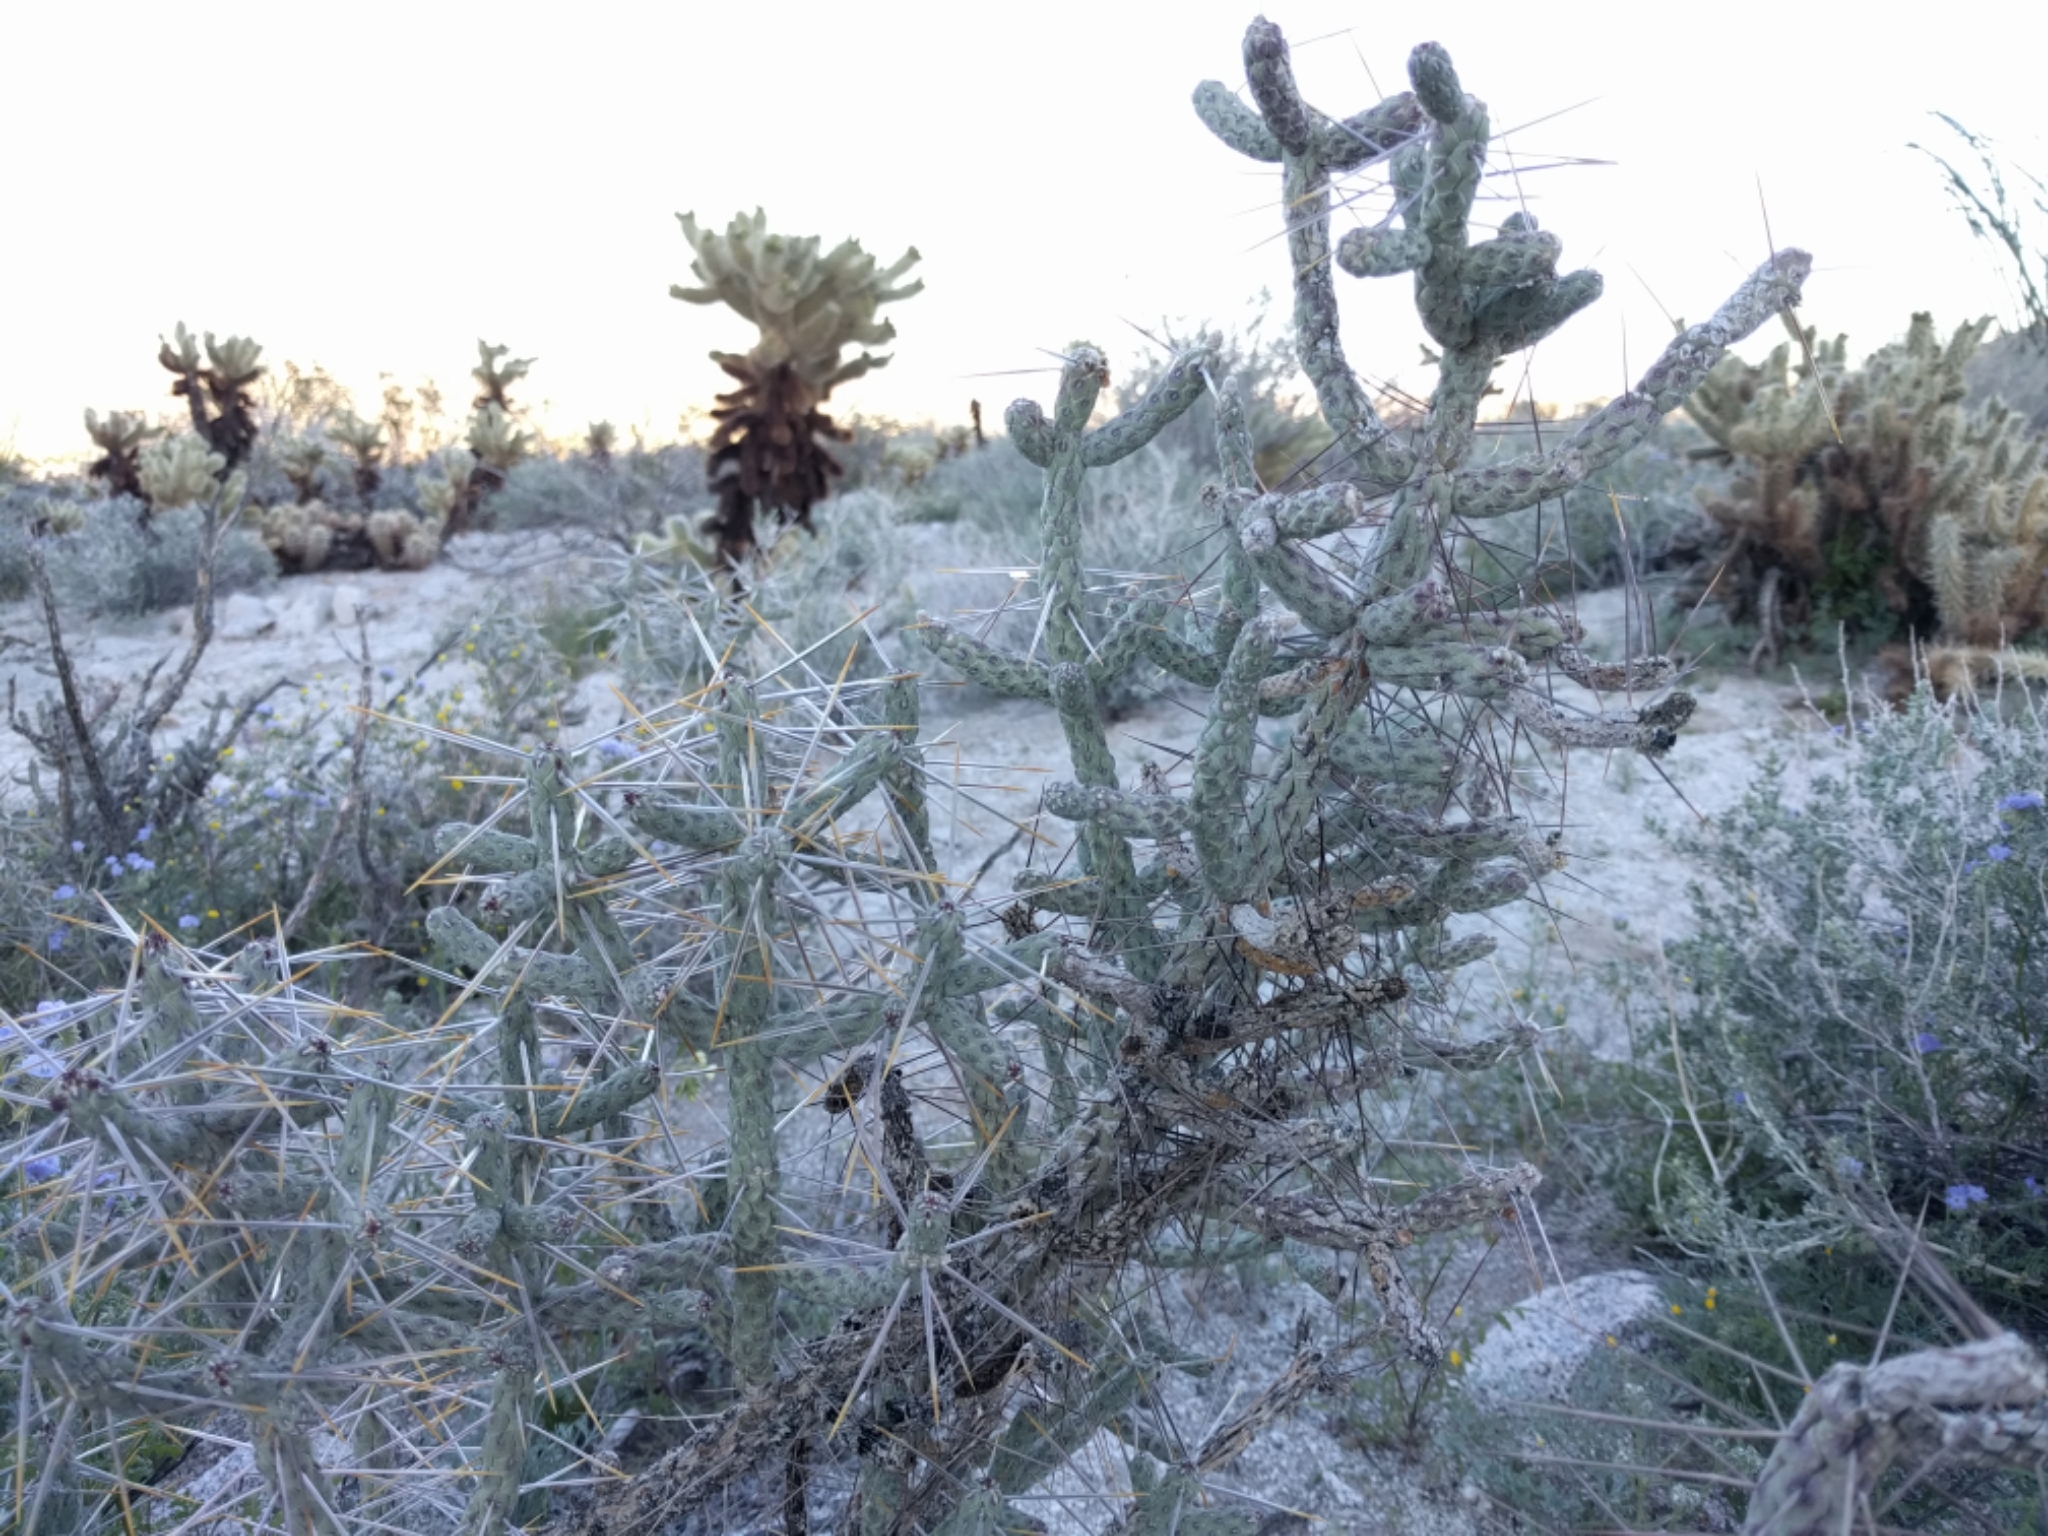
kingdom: Plantae
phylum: Tracheophyta
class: Magnoliopsida
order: Caryophyllales
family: Cactaceae
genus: Cylindropuntia
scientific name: Cylindropuntia ramosissima
